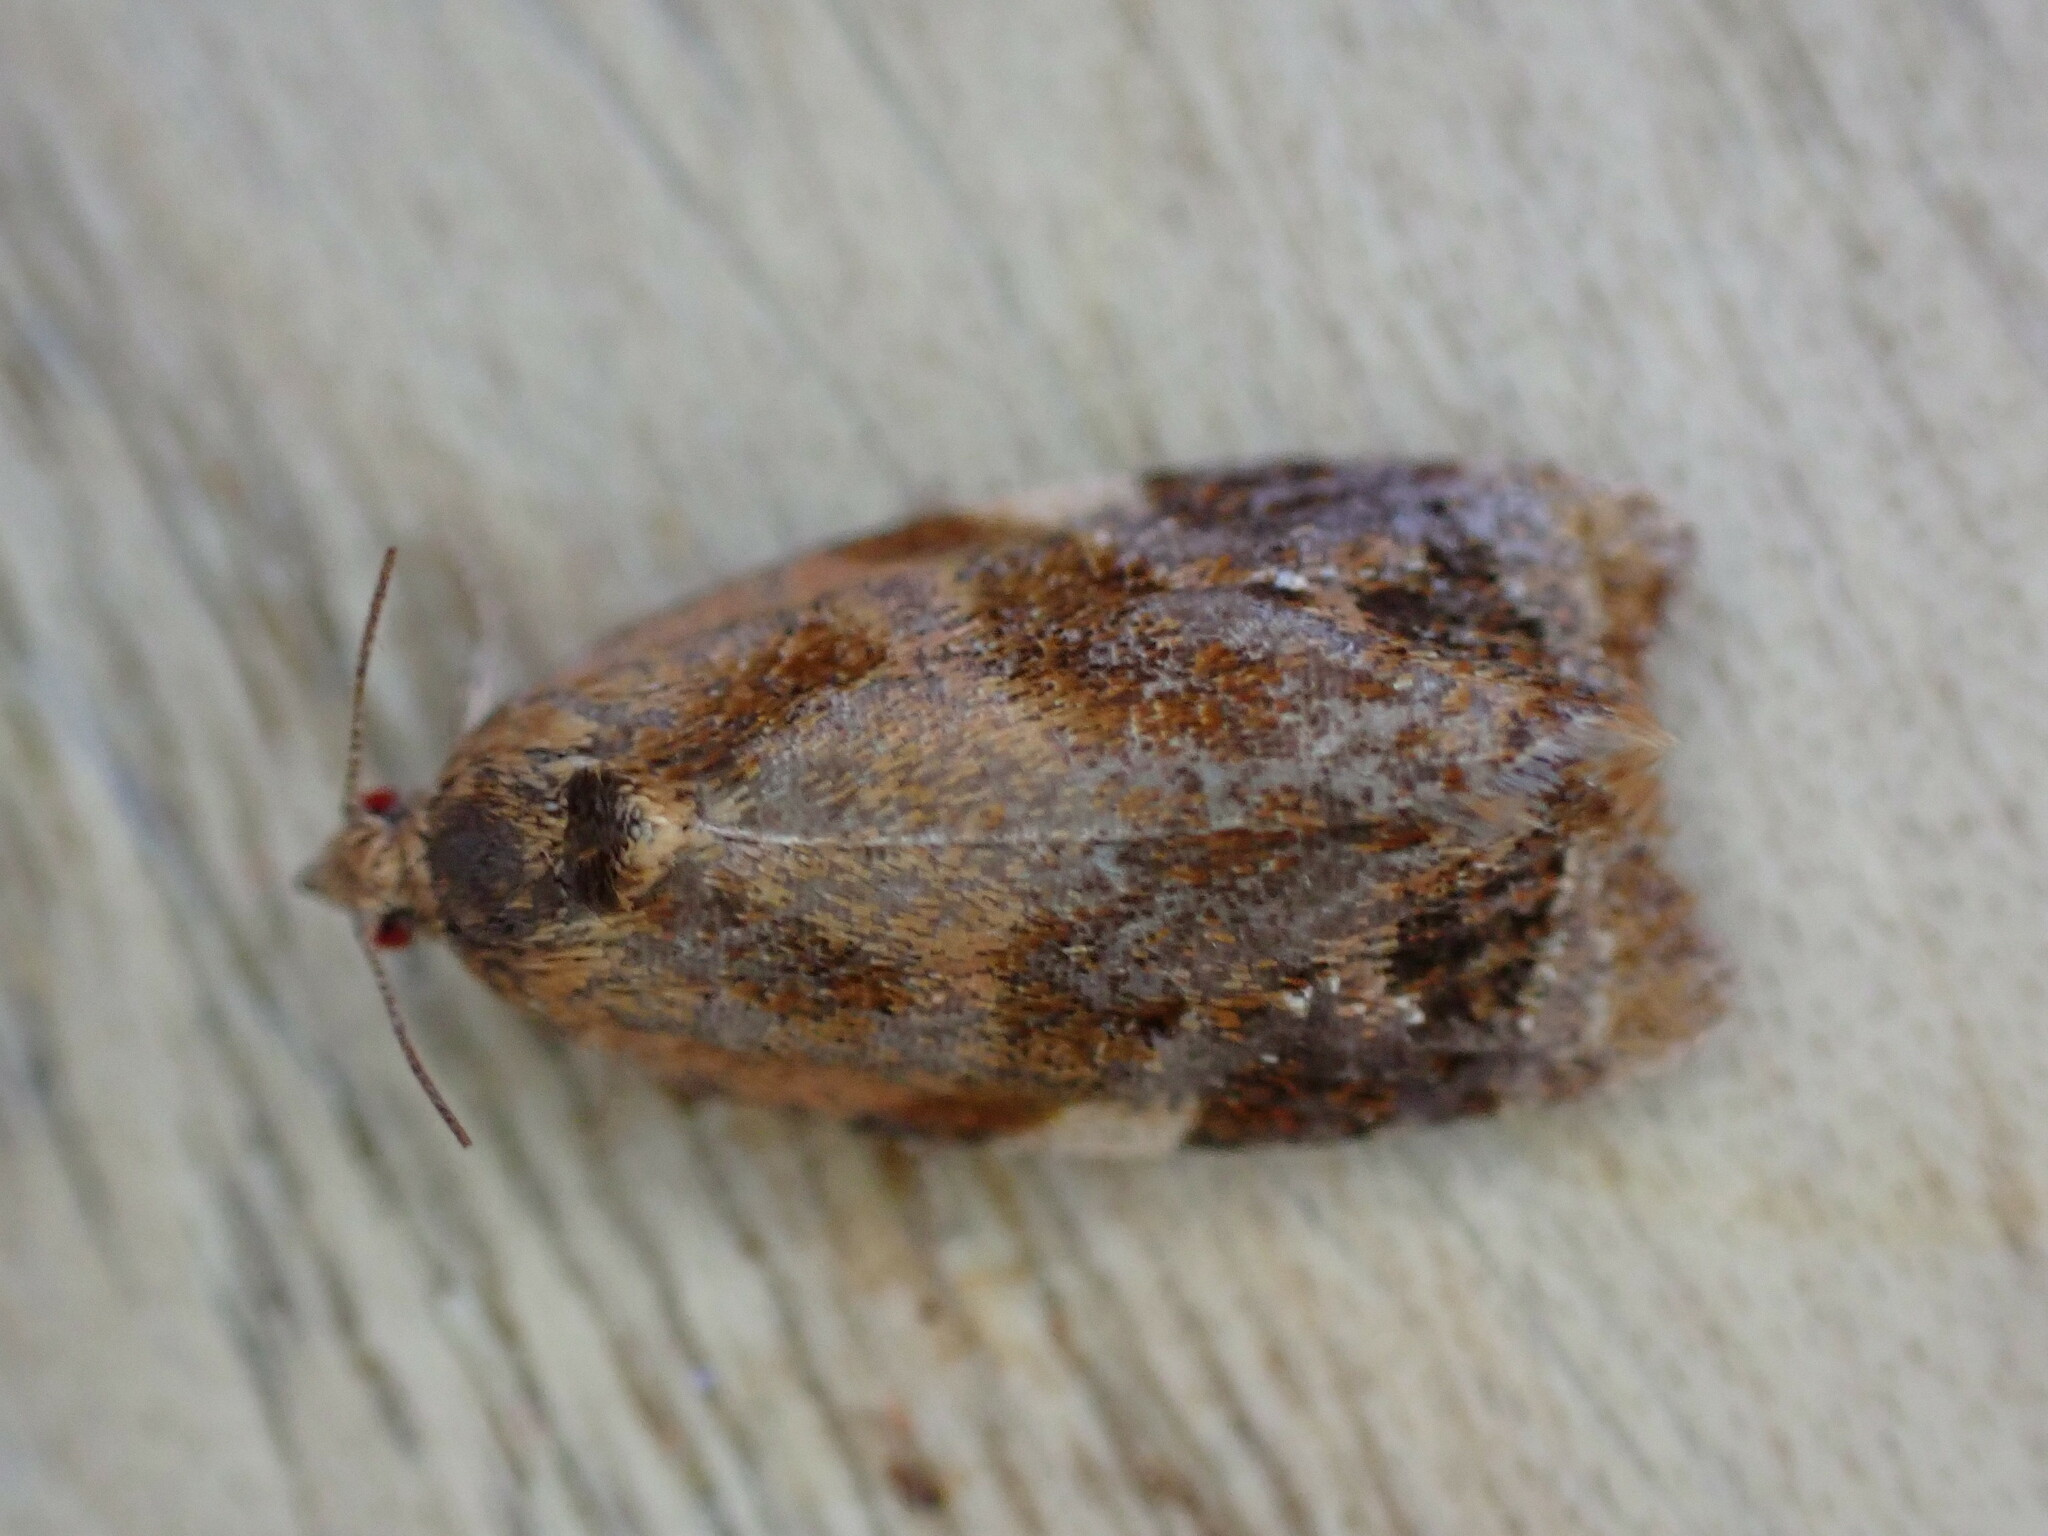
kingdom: Animalia
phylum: Arthropoda
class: Insecta
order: Lepidoptera
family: Tortricidae
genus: Ditula
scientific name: Ditula angustiorana
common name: Red-barred tortrix
